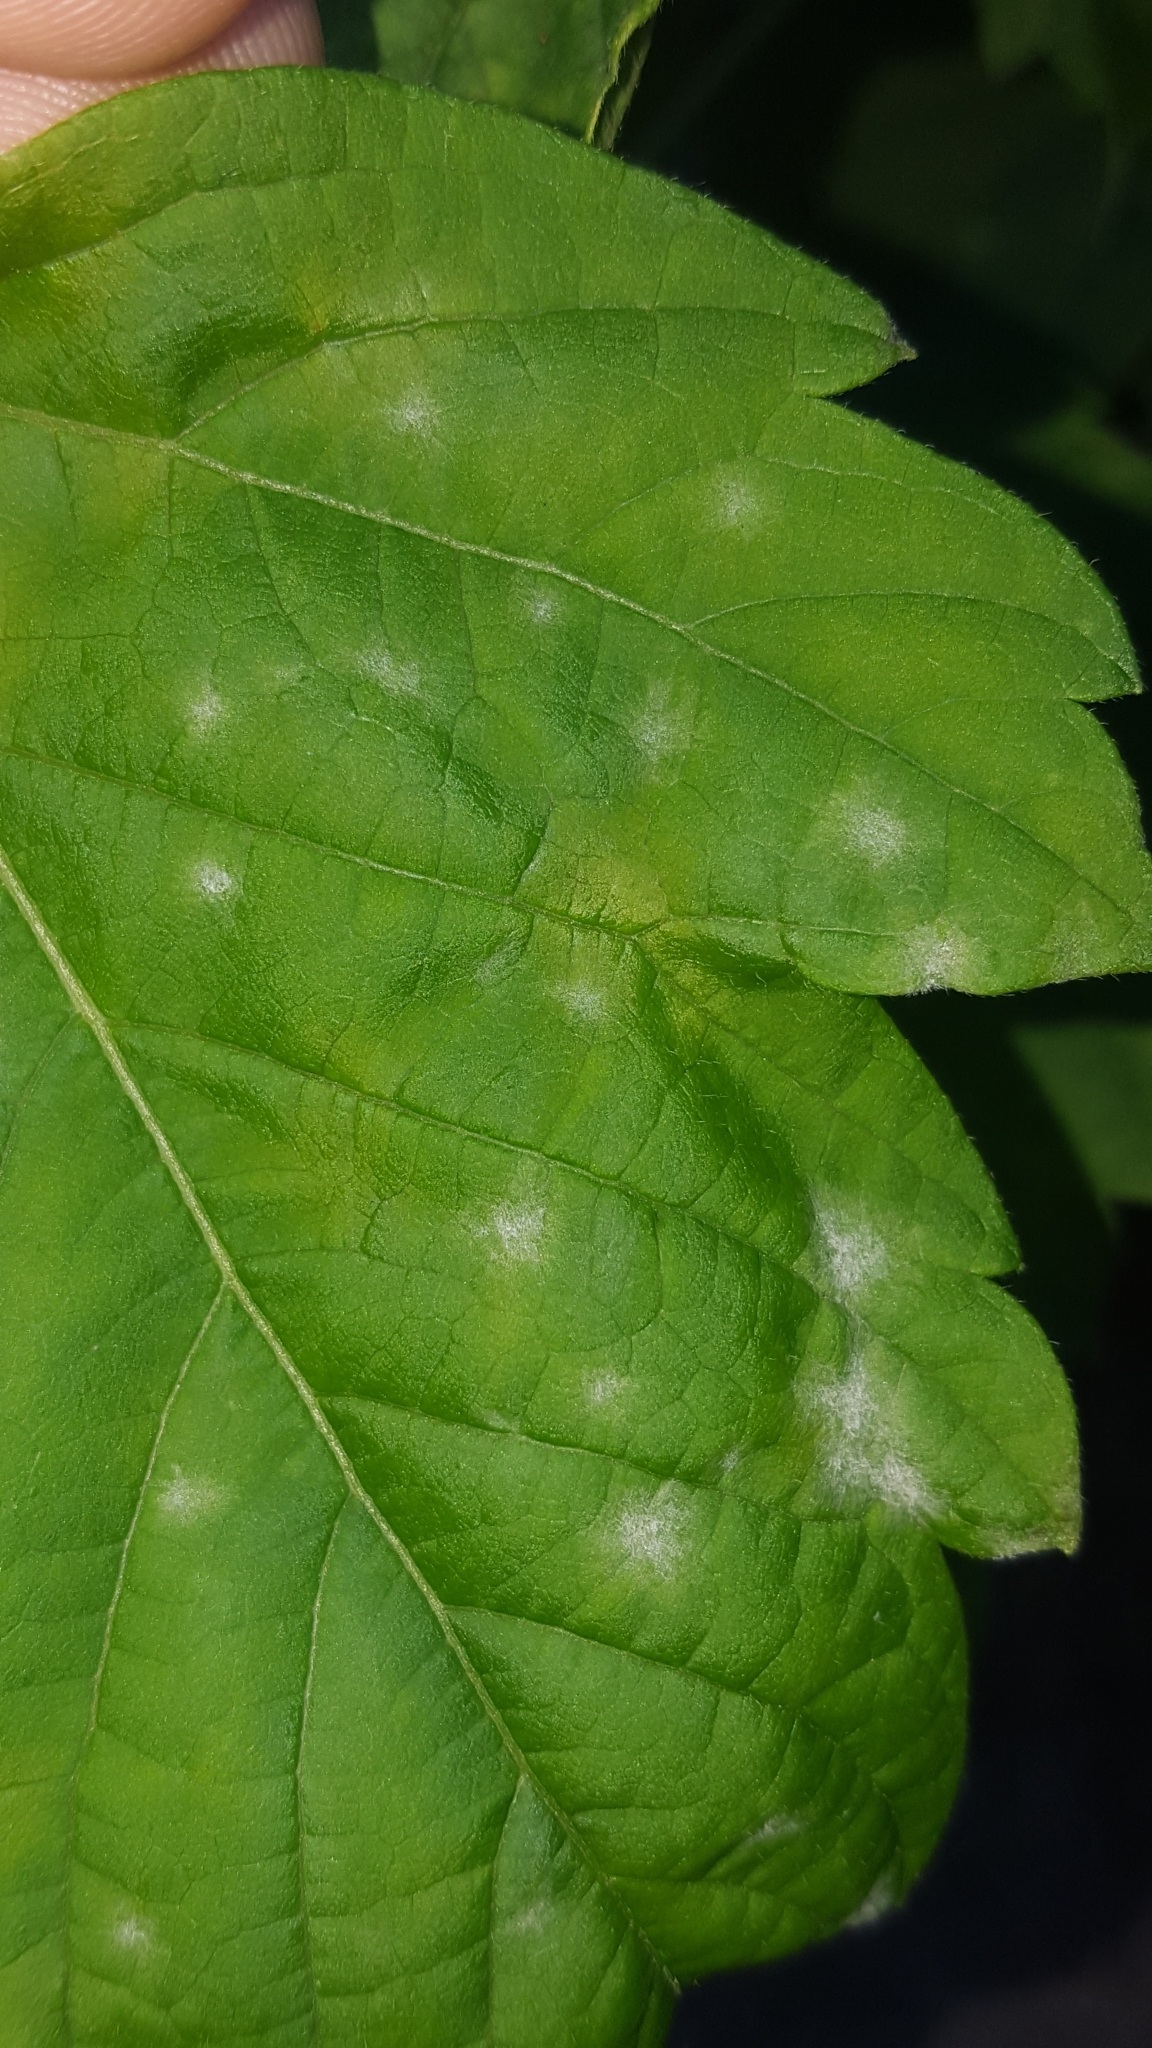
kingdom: Fungi
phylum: Ascomycota
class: Leotiomycetes
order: Helotiales
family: Erysiphaceae
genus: Sawadaea
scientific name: Sawadaea bicornis
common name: Maple mildew
